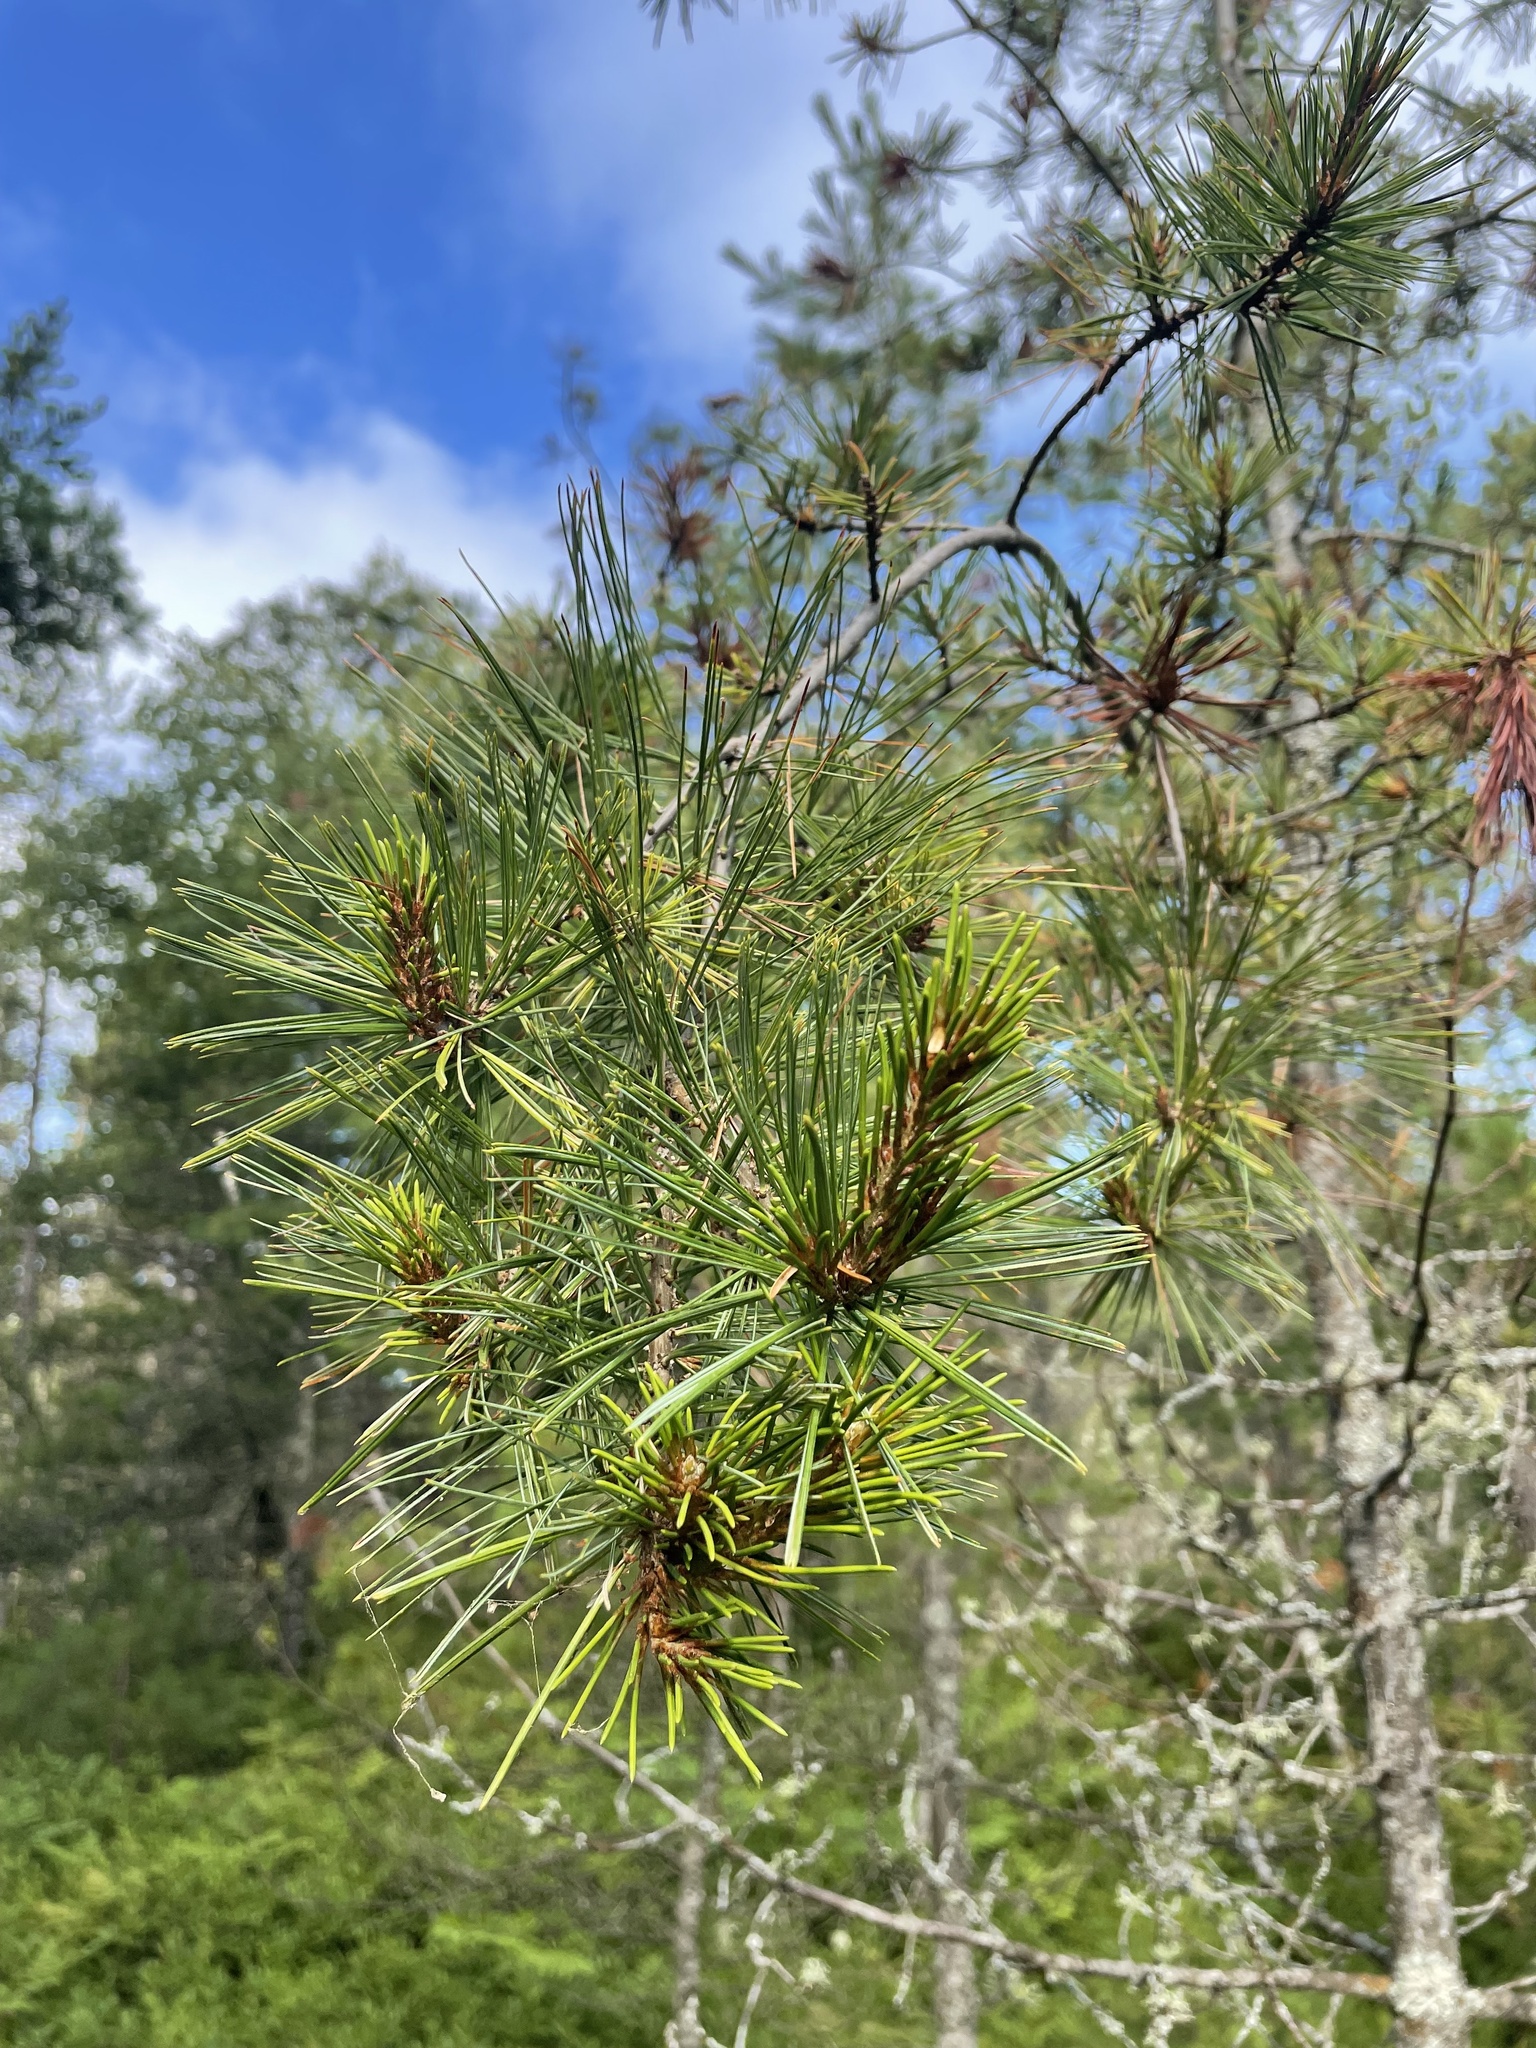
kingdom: Plantae
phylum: Tracheophyta
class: Pinopsida
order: Pinales
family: Pinaceae
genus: Pinus
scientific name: Pinus strobus
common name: Weymouth pine
